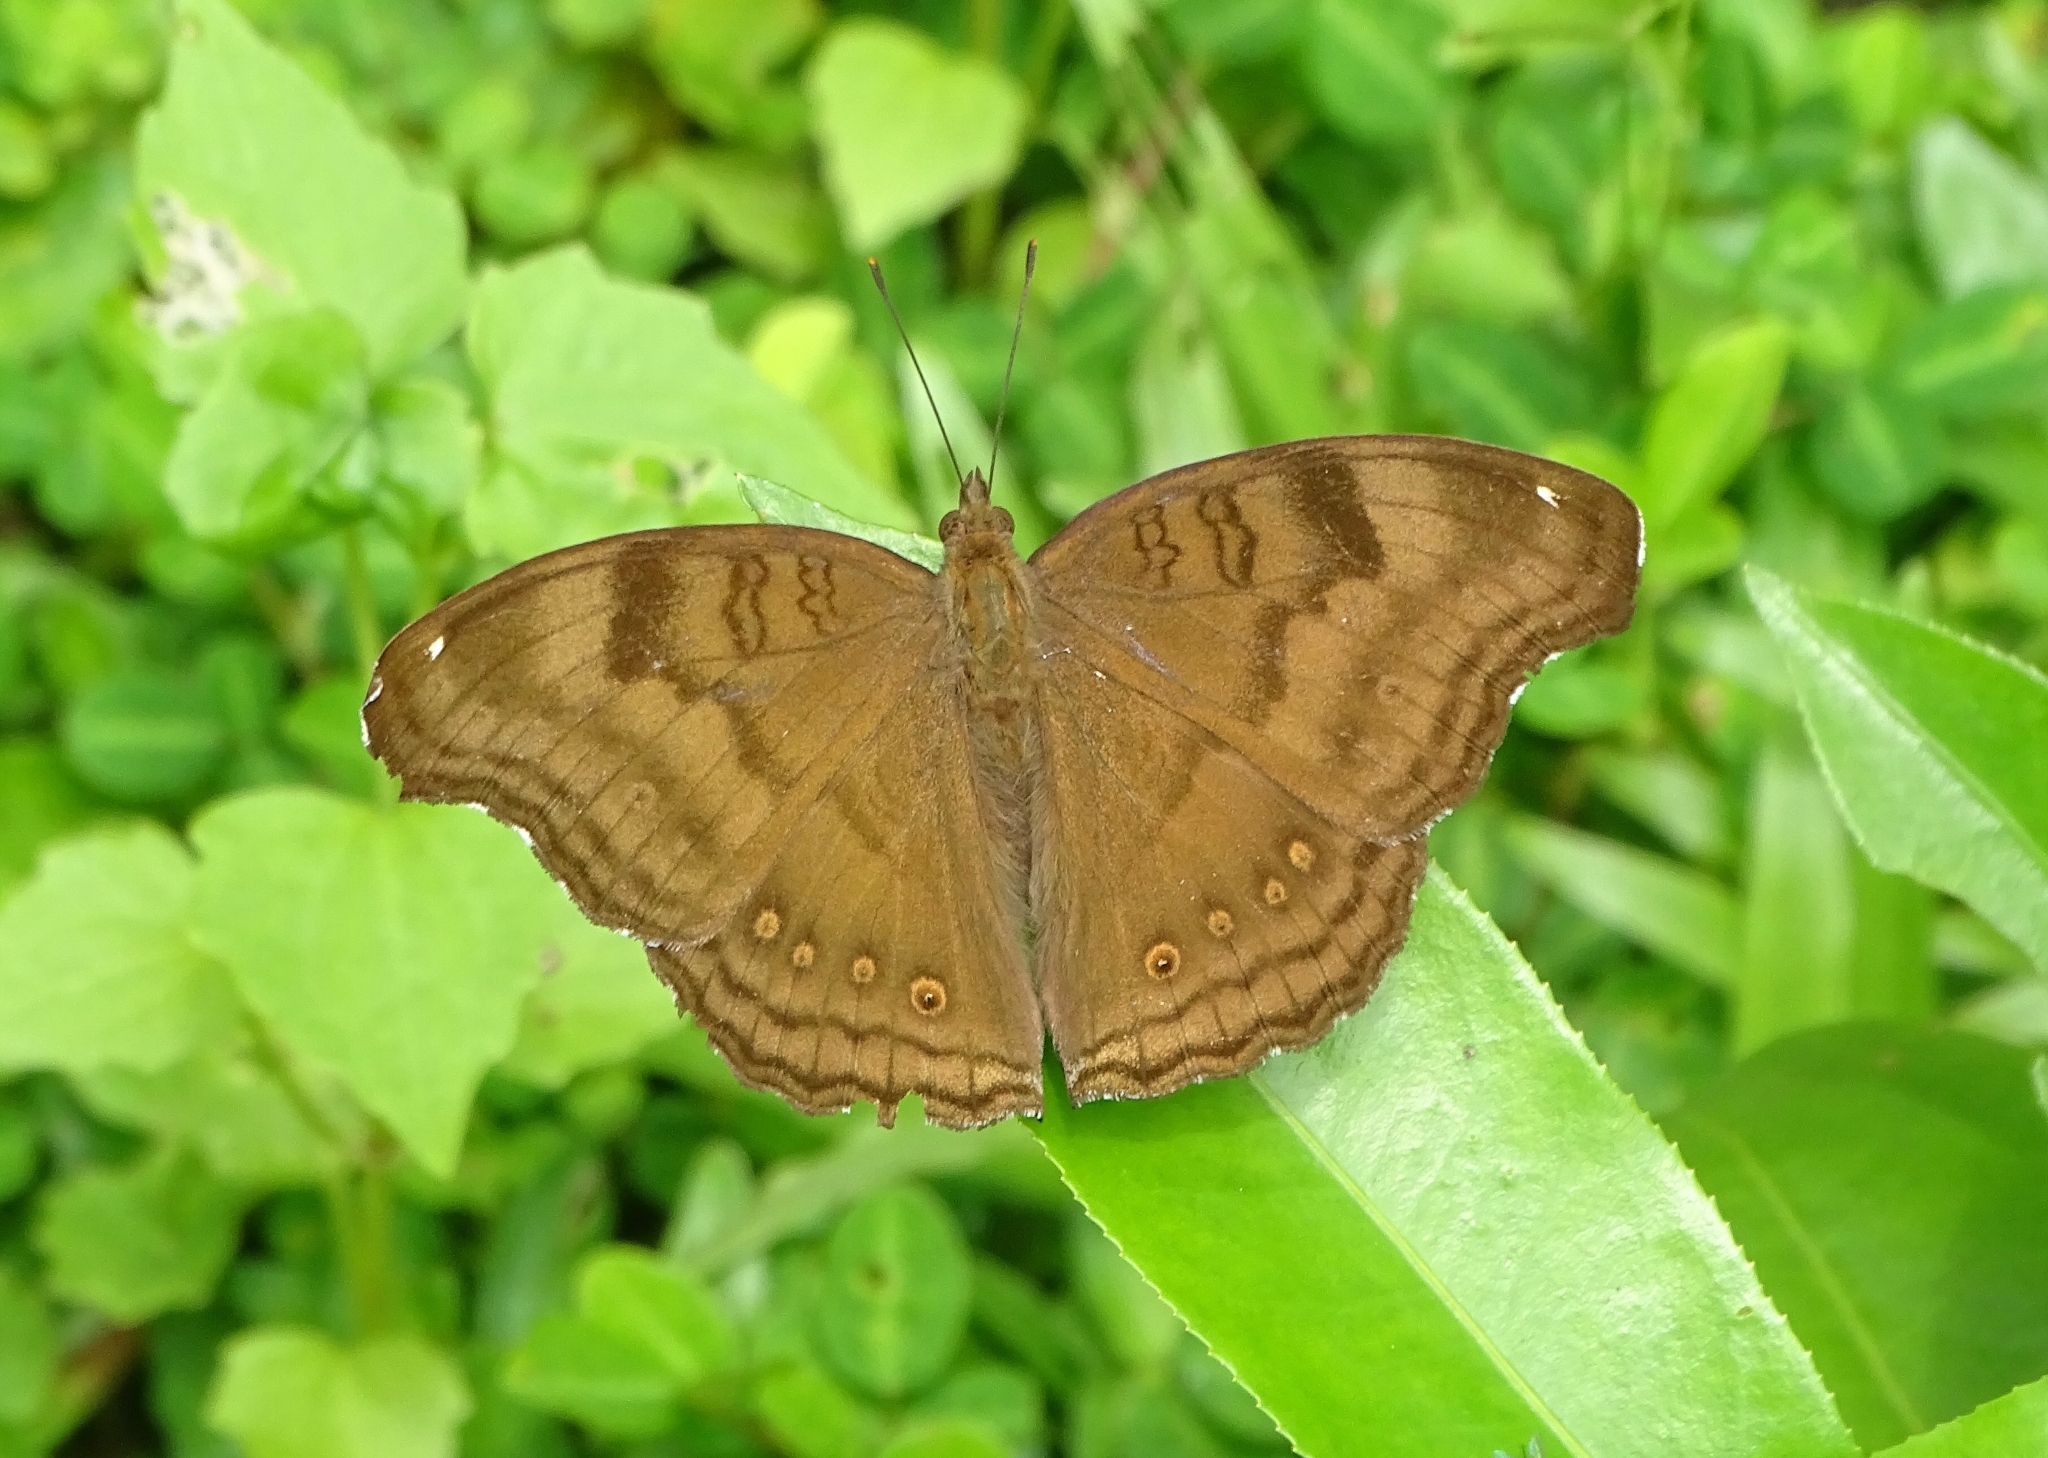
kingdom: Animalia
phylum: Arthropoda
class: Insecta
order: Lepidoptera
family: Nymphalidae
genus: Junonia
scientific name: Junonia iphita
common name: Chocolate pansy
